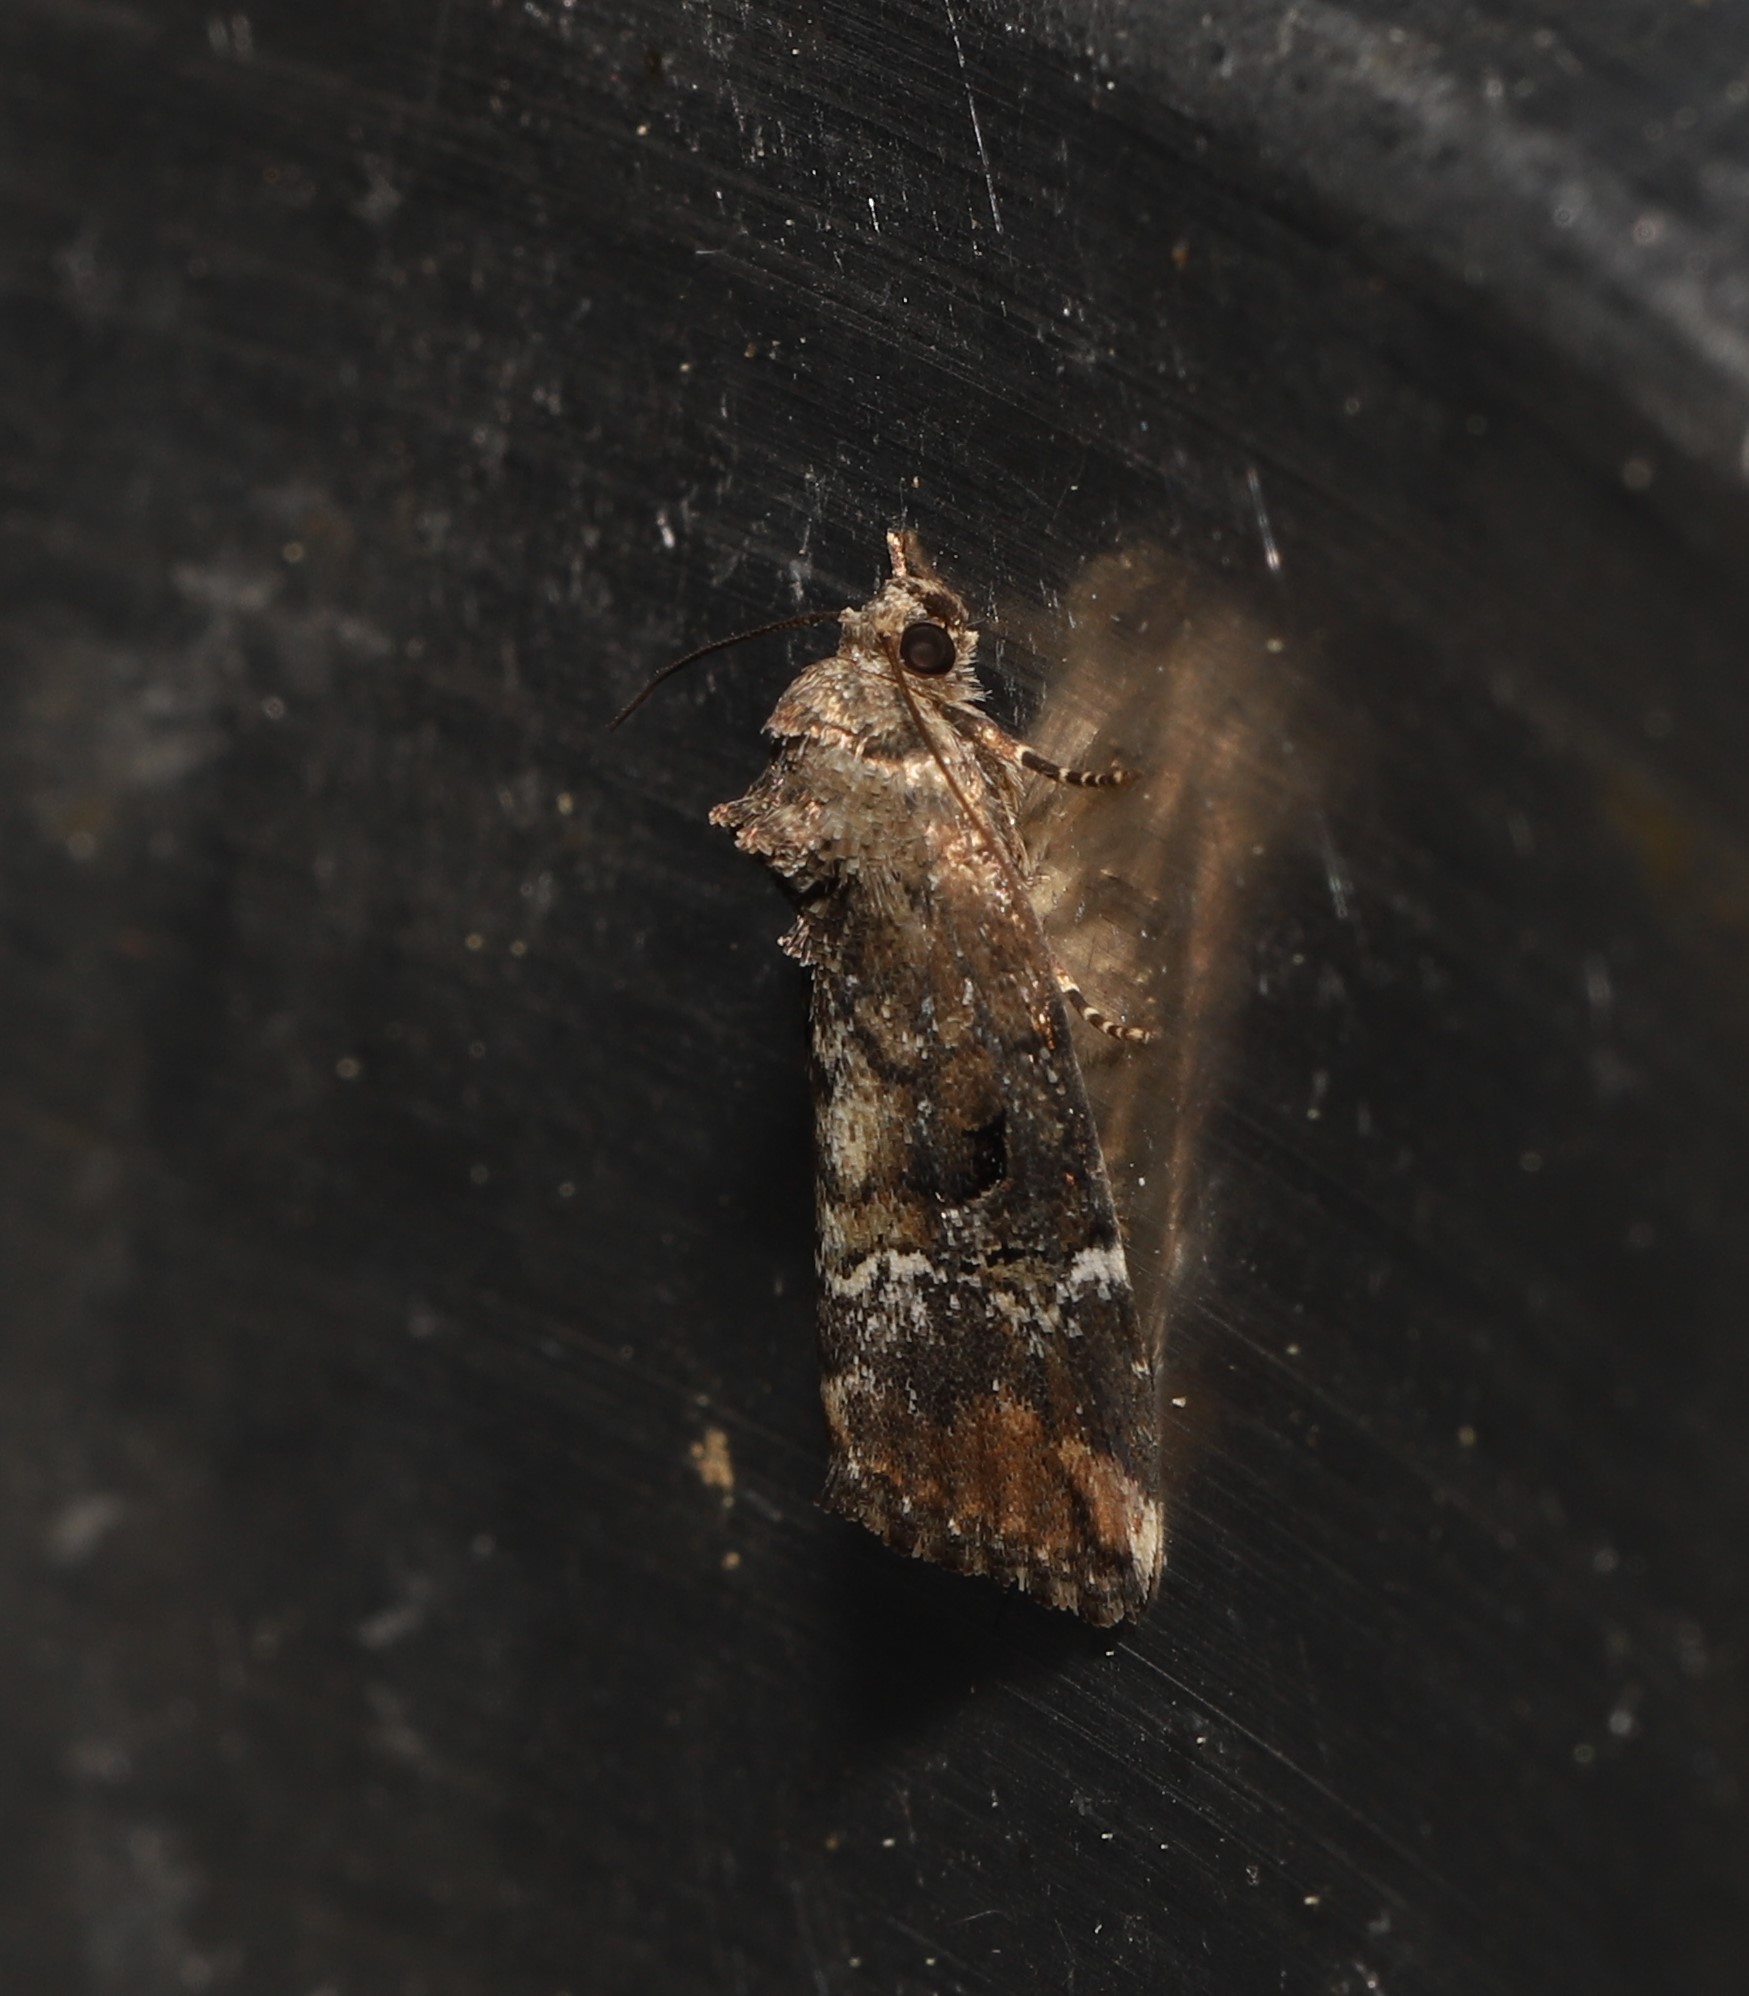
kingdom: Animalia
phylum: Arthropoda
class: Insecta
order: Lepidoptera
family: Noctuidae
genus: Elaphria
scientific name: Elaphria versicolor
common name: Fir harlequin
